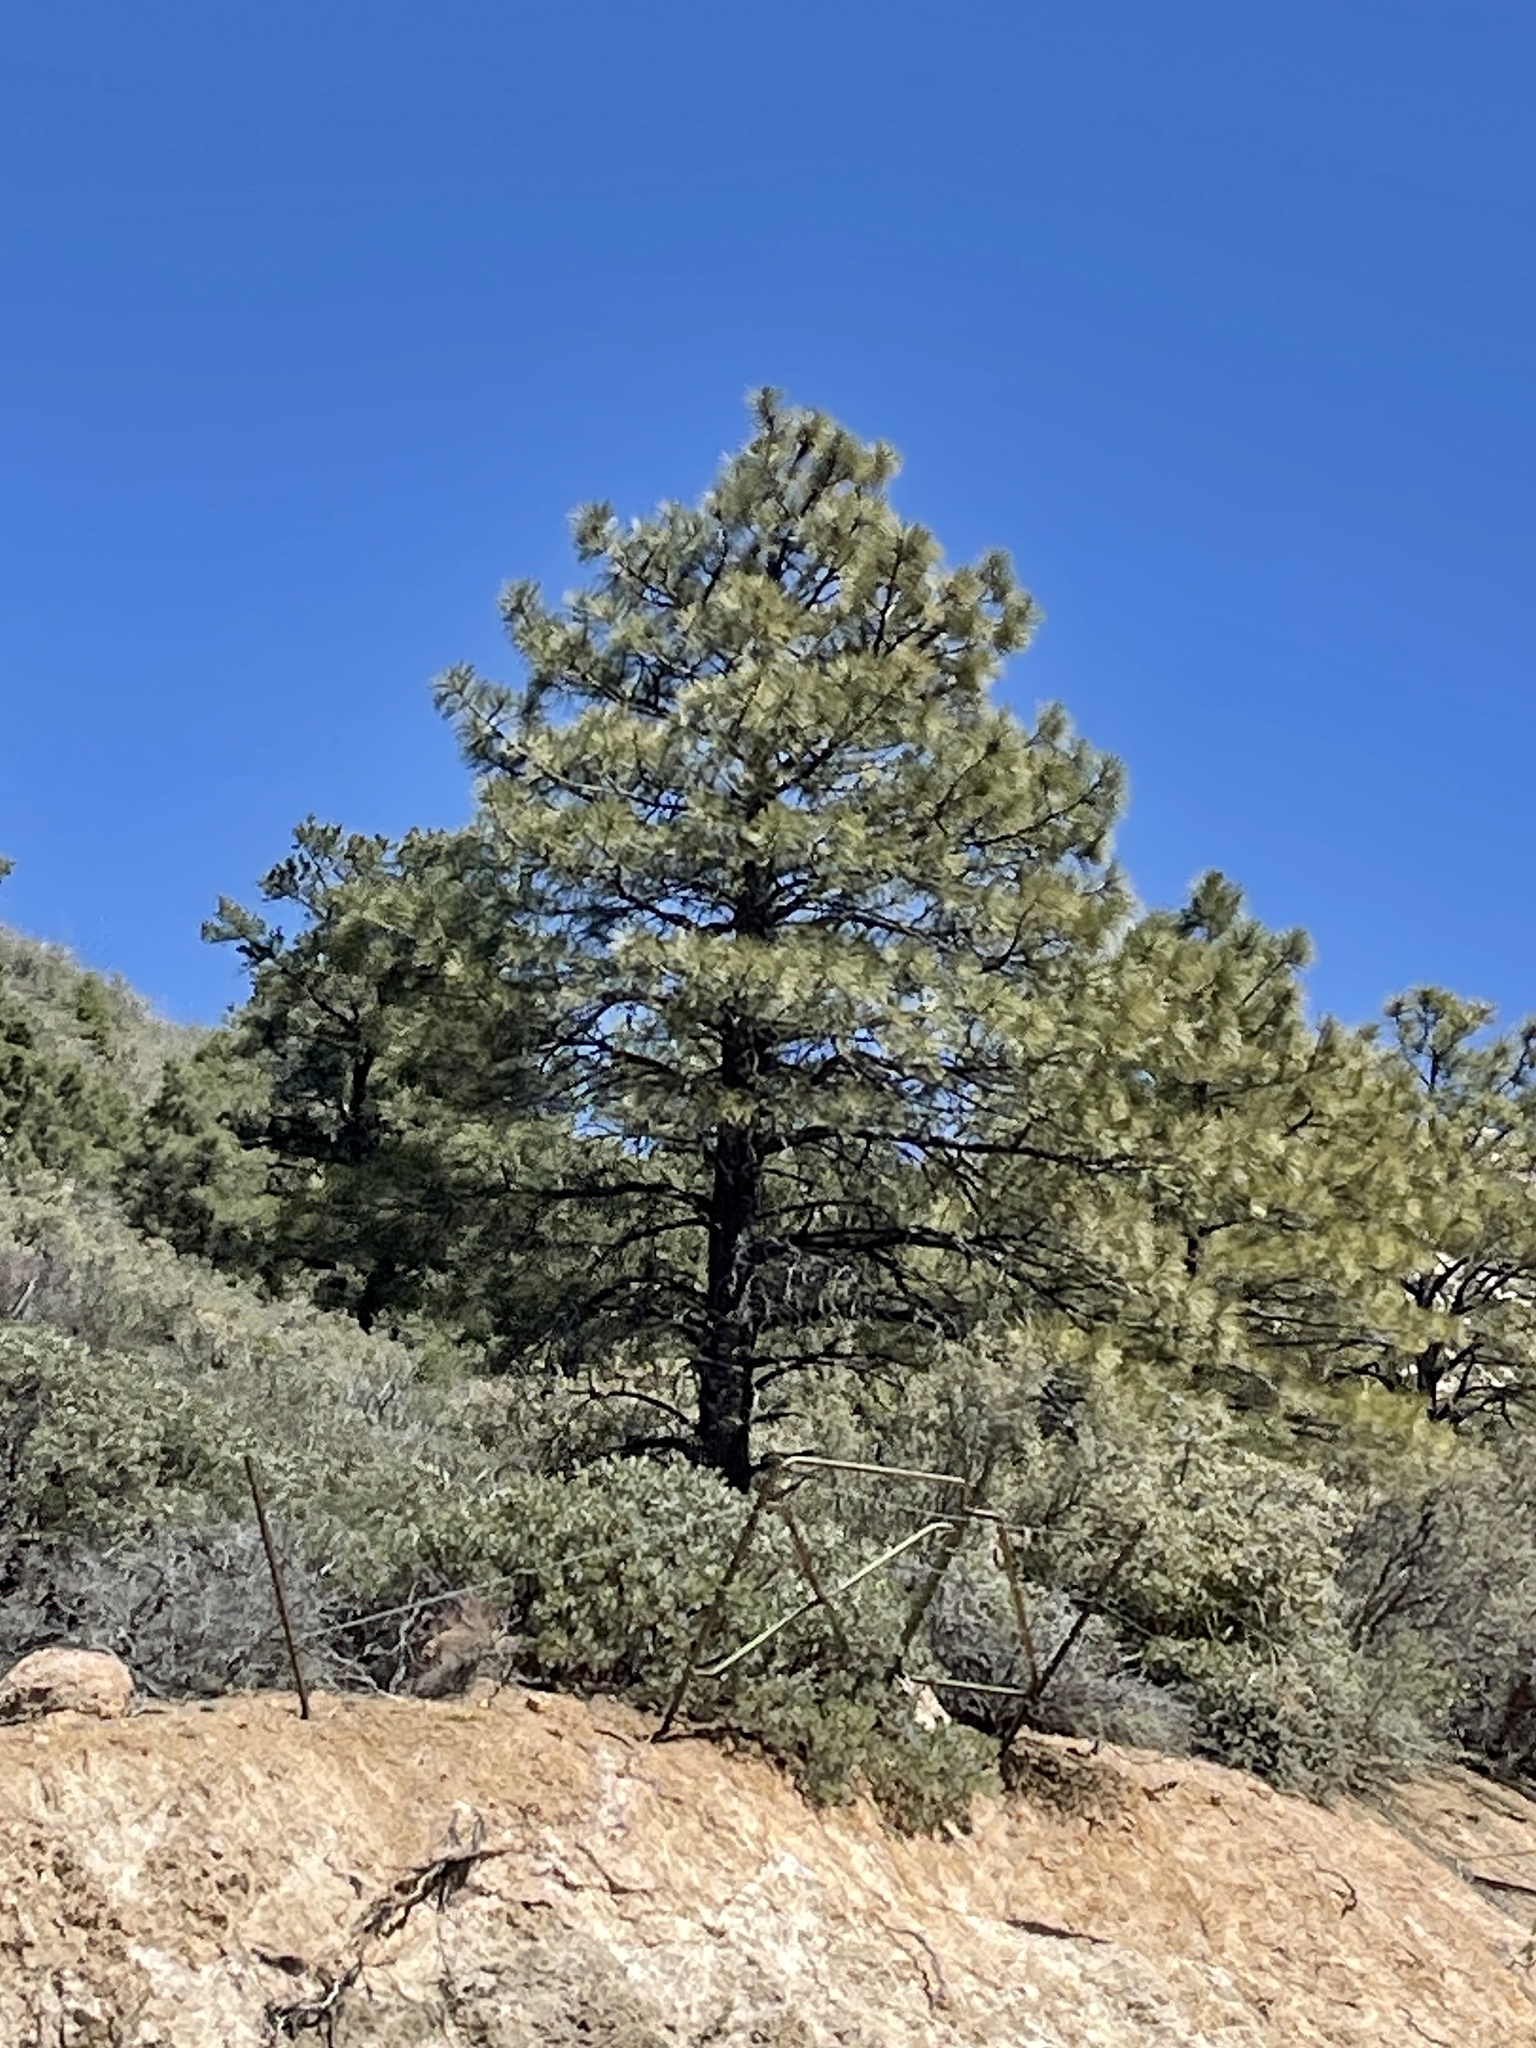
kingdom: Plantae
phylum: Tracheophyta
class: Pinopsida
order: Pinales
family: Pinaceae
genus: Pinus
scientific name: Pinus ponderosa
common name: Western yellow-pine
